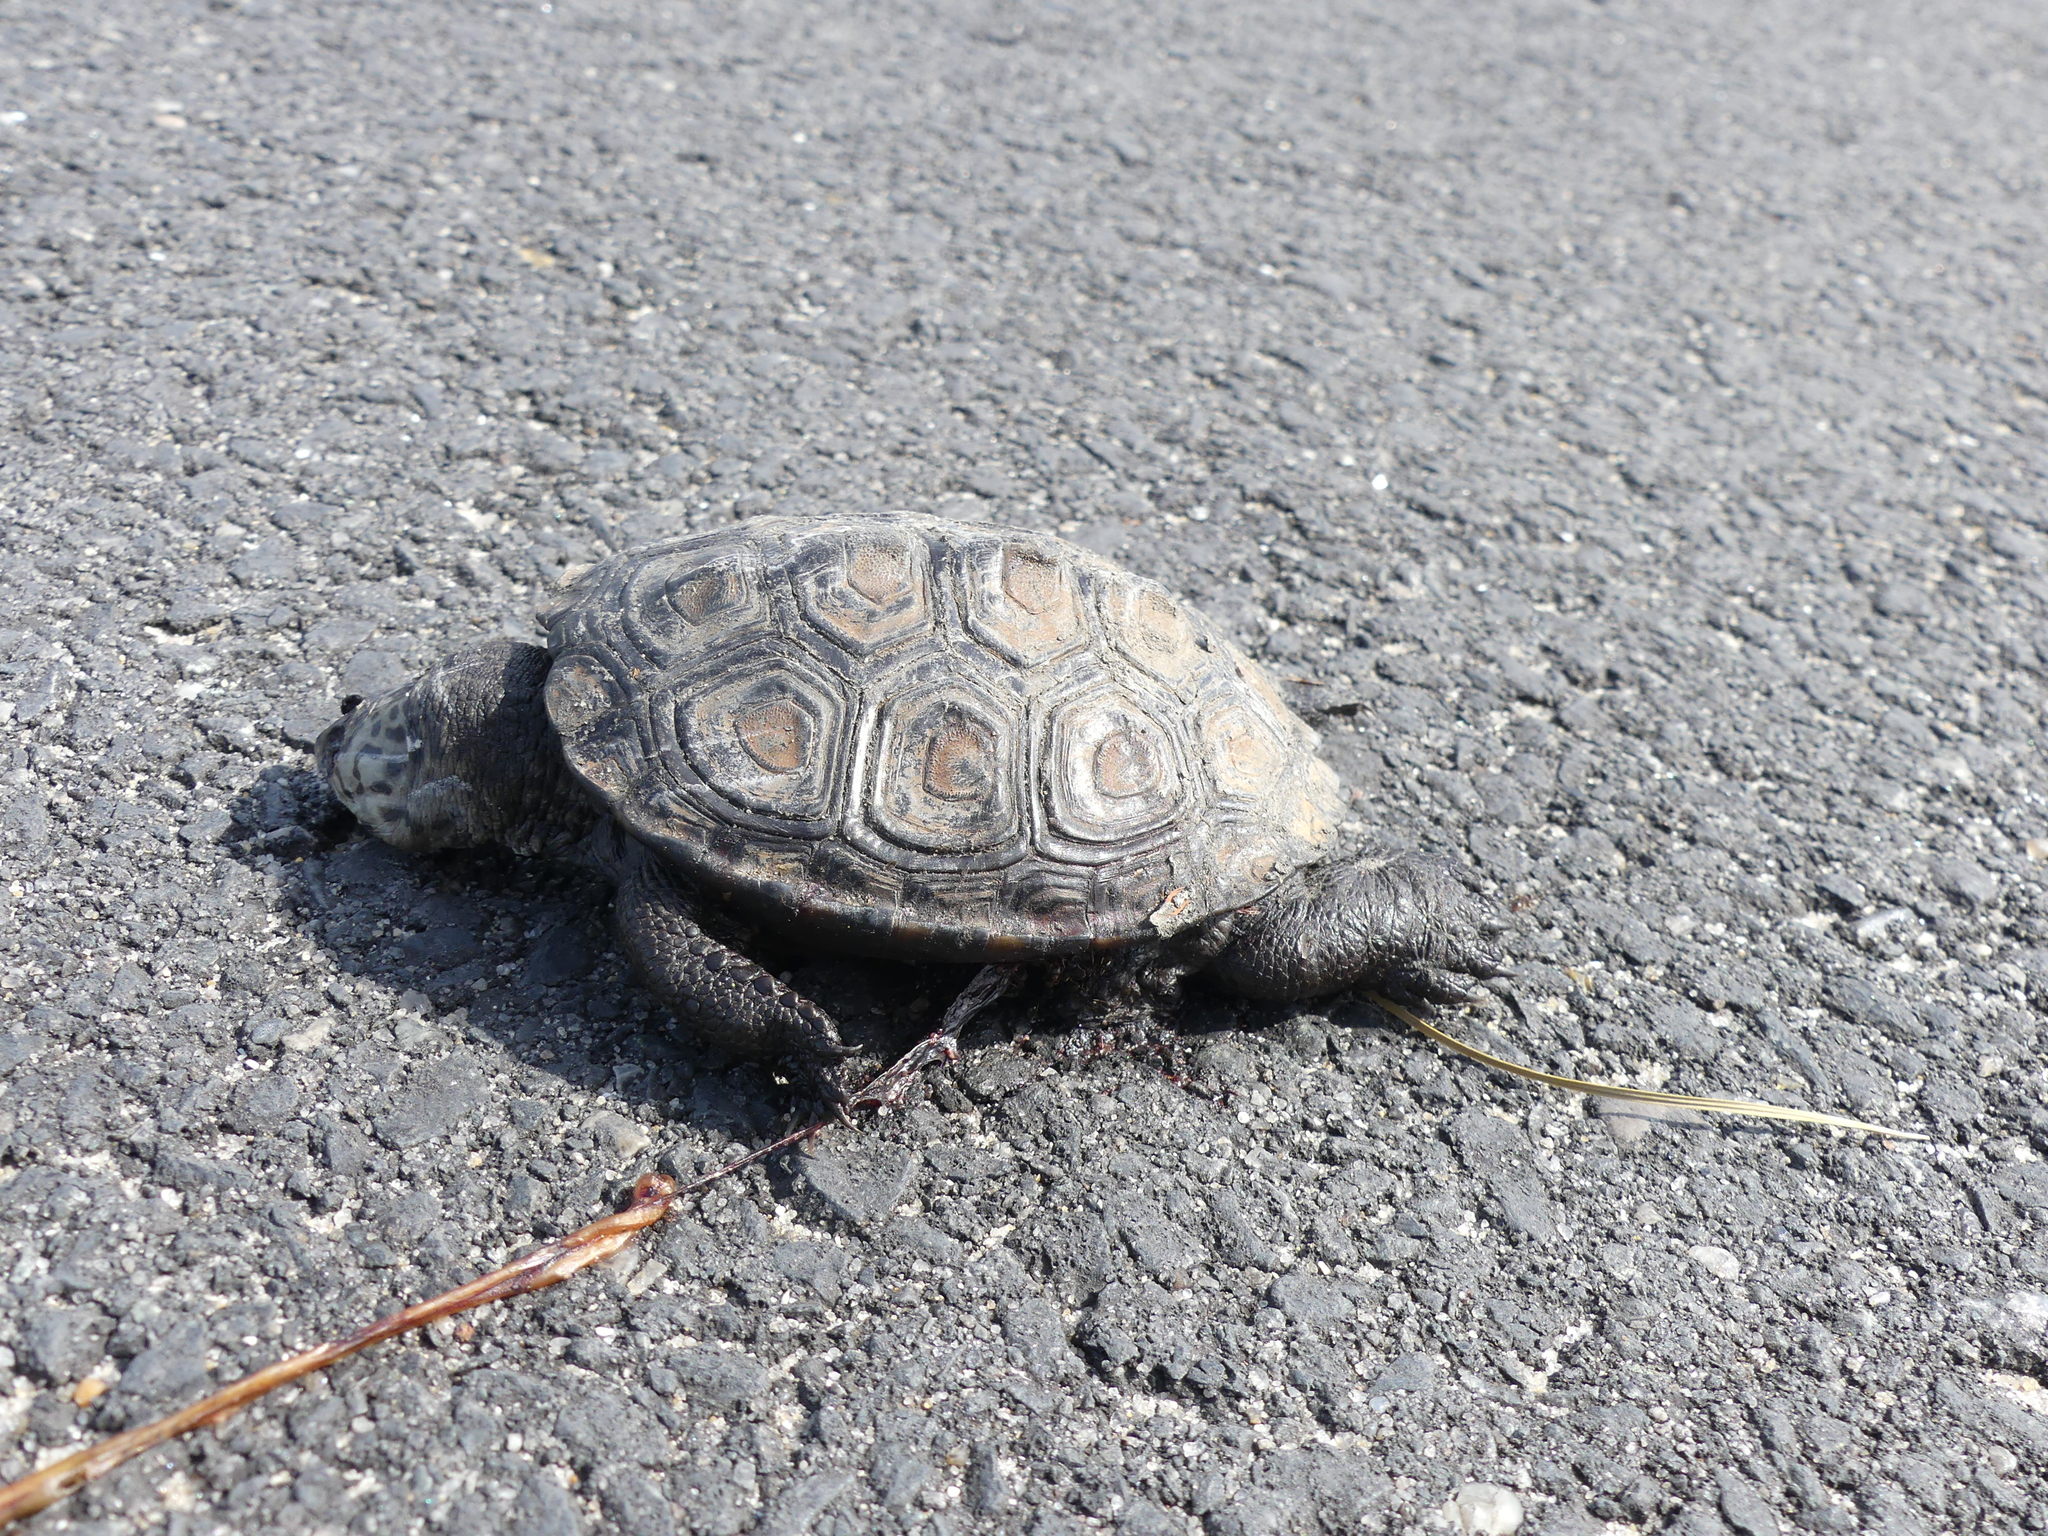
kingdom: Animalia
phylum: Chordata
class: Testudines
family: Emydidae
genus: Malaclemys
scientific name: Malaclemys terrapin
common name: Diamondback terrapin
